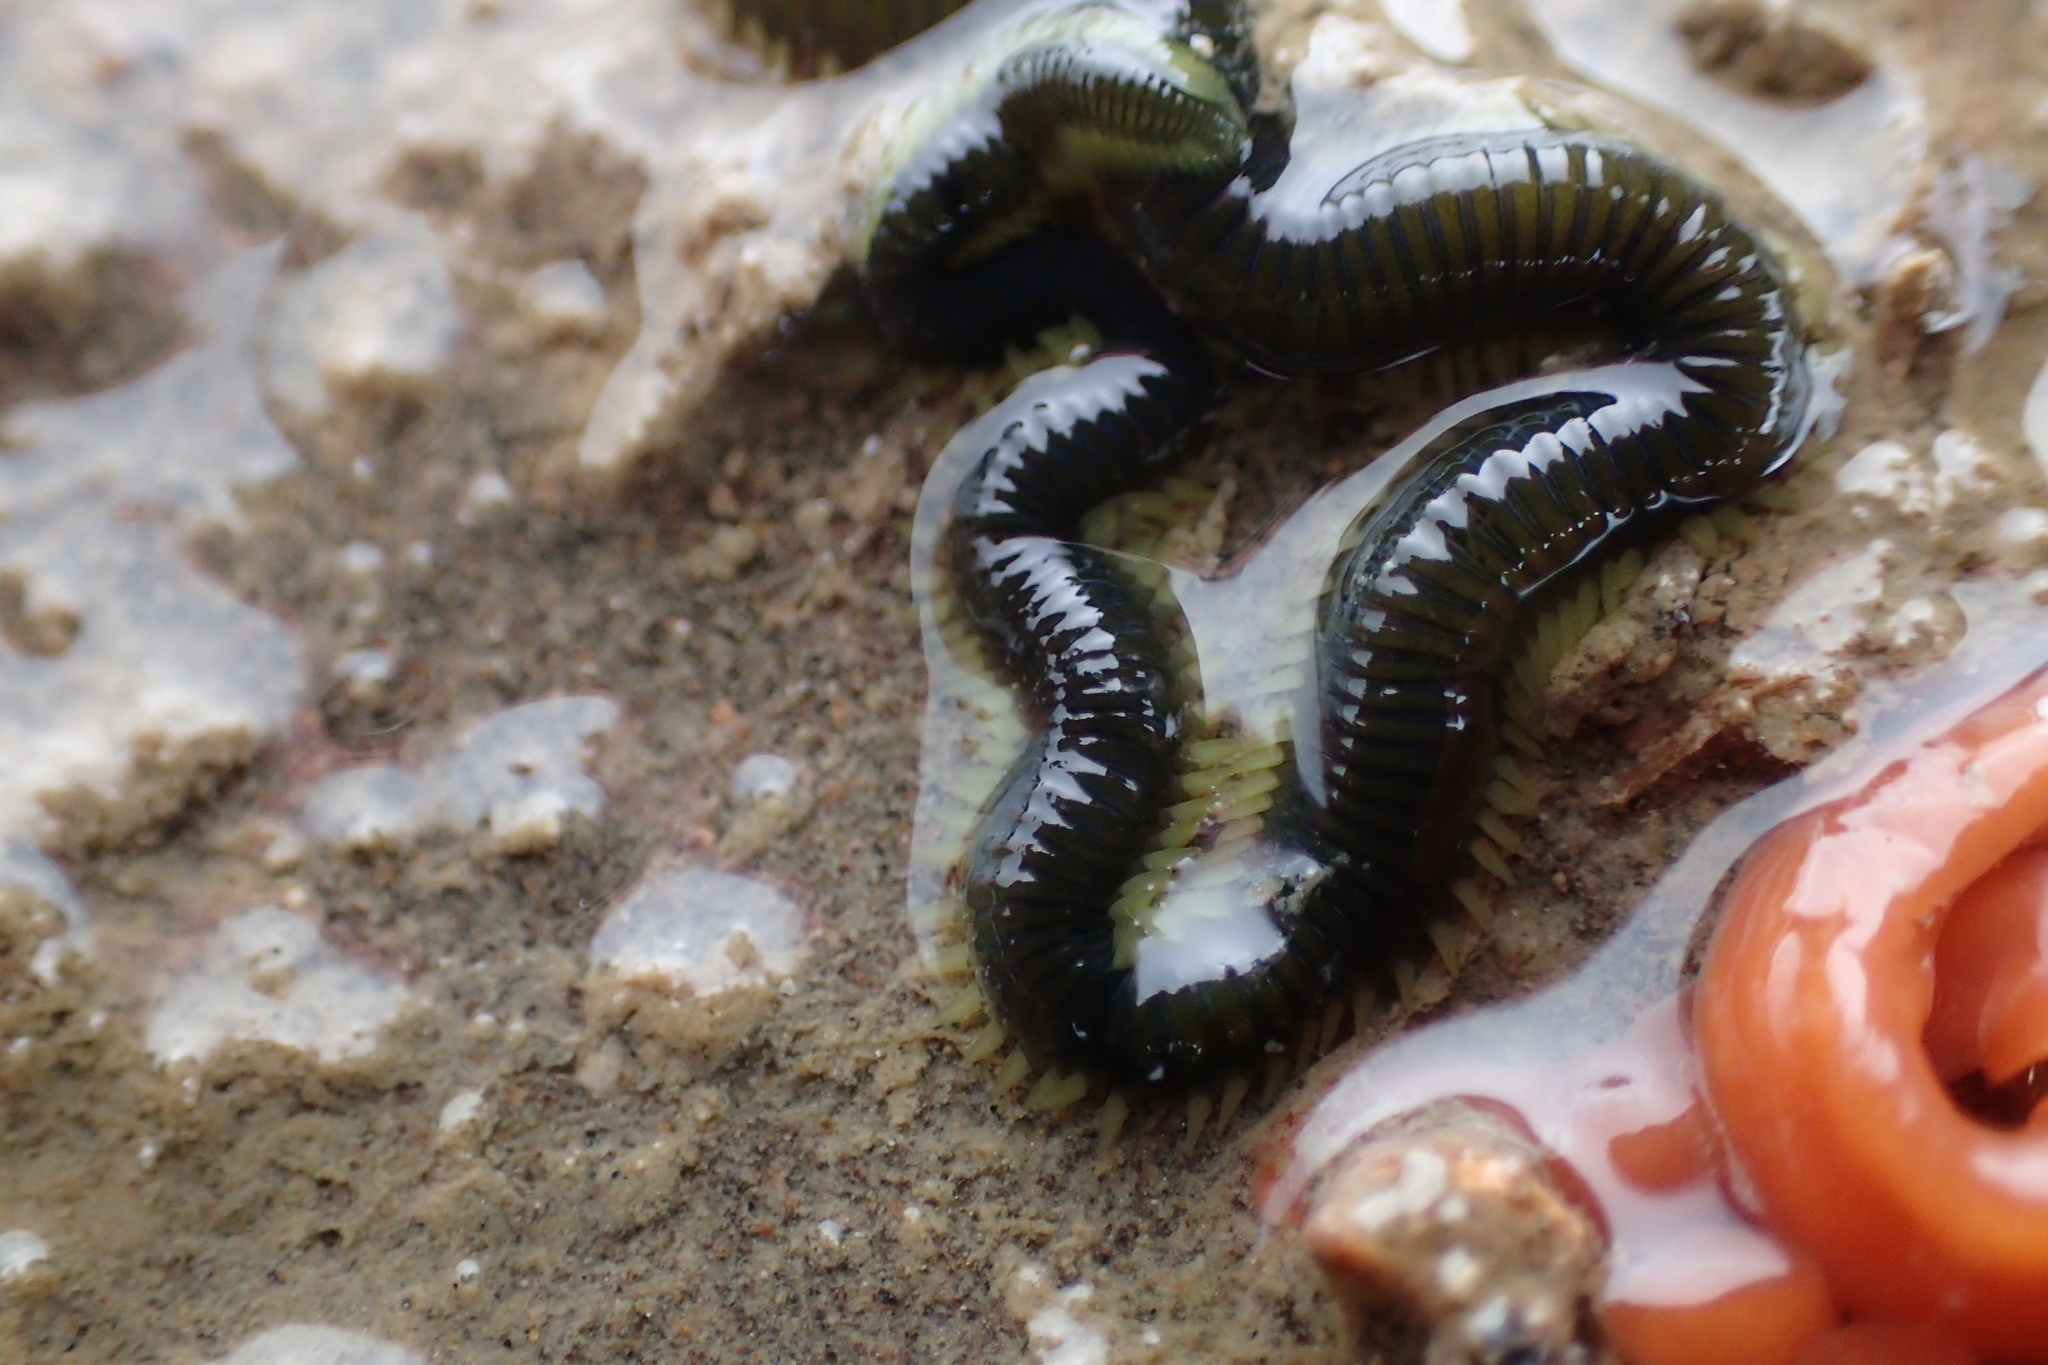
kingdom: Animalia
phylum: Annelida
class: Polychaeta
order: Phyllodocida
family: Phyllodocidae
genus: Eulalia
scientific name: Eulalia microphylla
